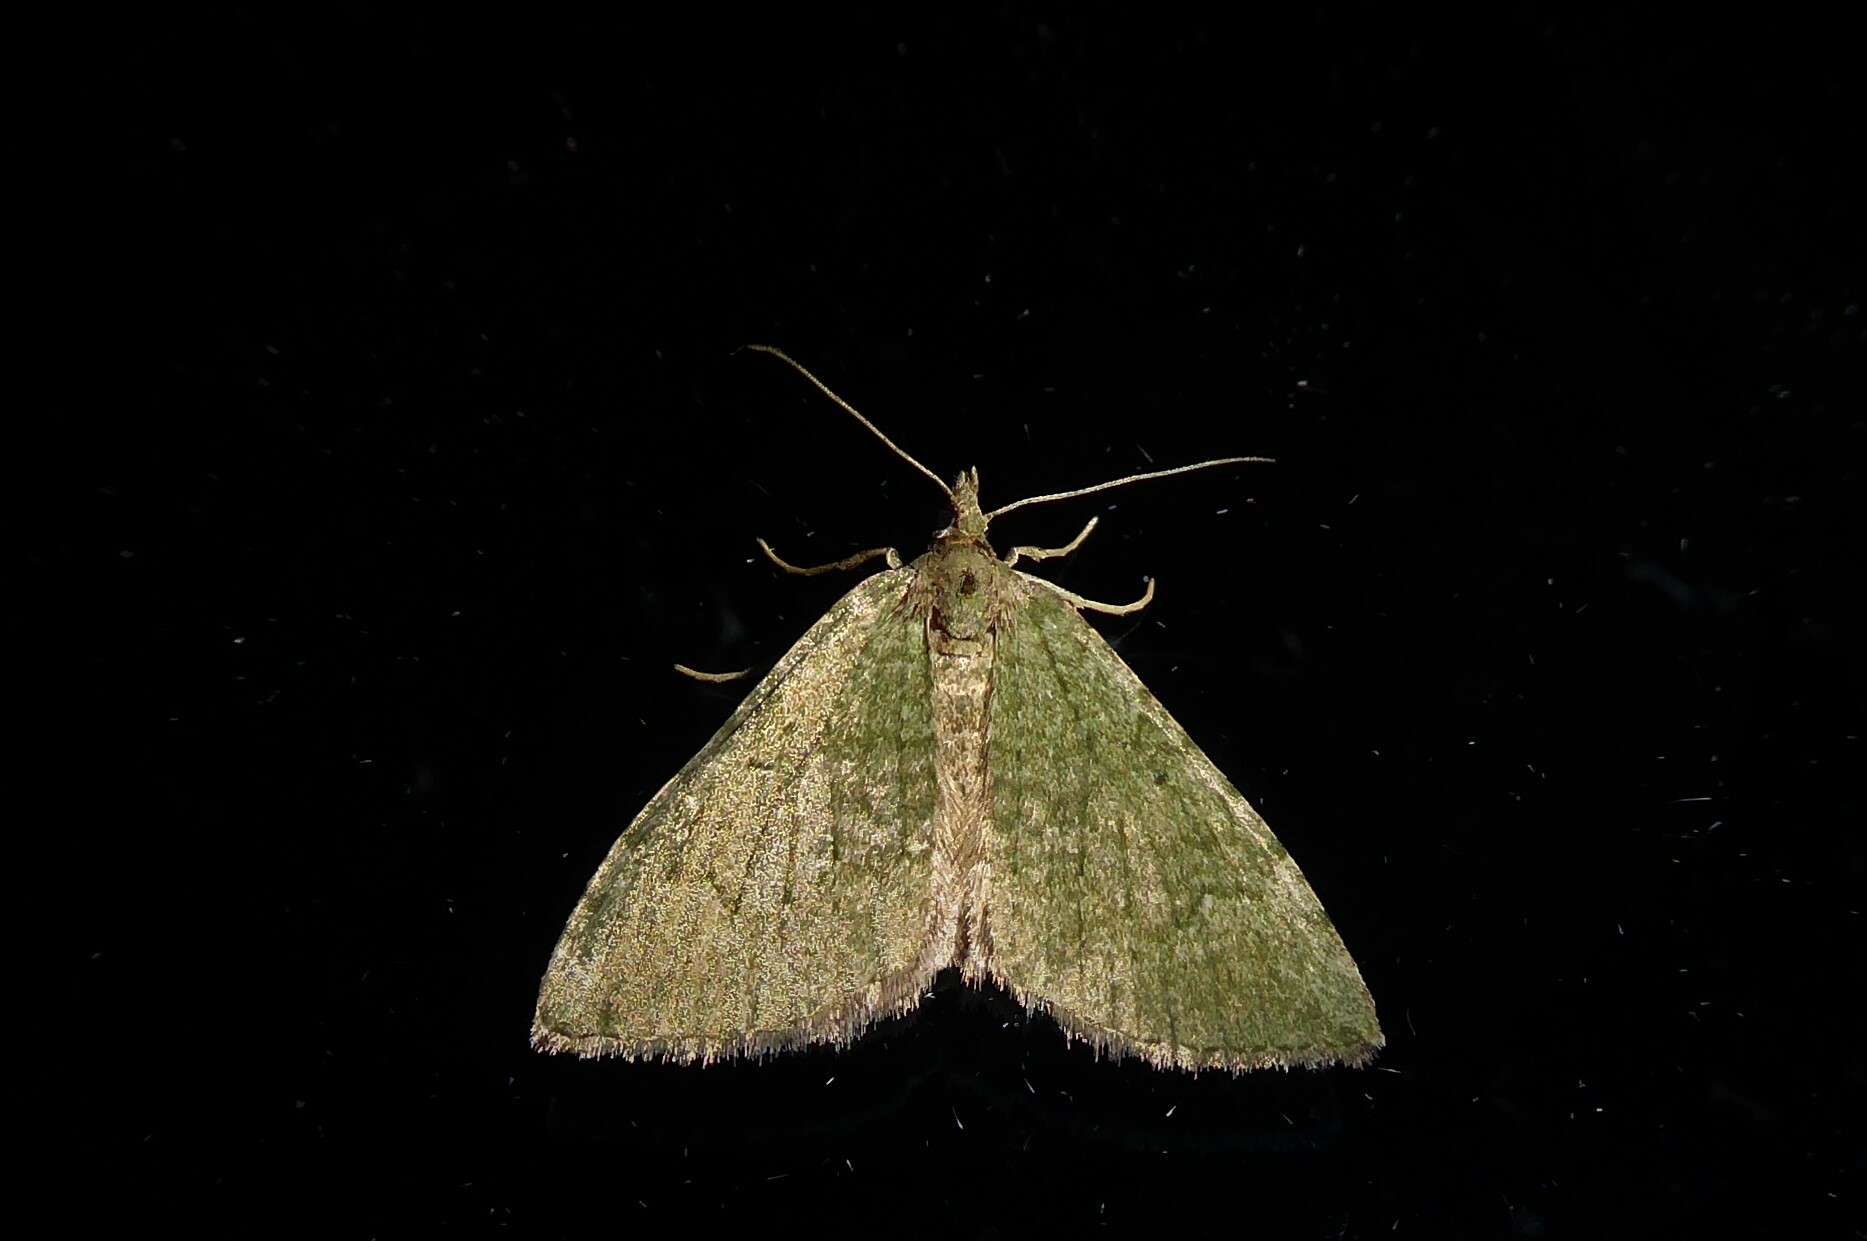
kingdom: Animalia
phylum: Arthropoda
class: Insecta
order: Lepidoptera
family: Geometridae
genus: Epyaxa
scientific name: Epyaxa rosearia
